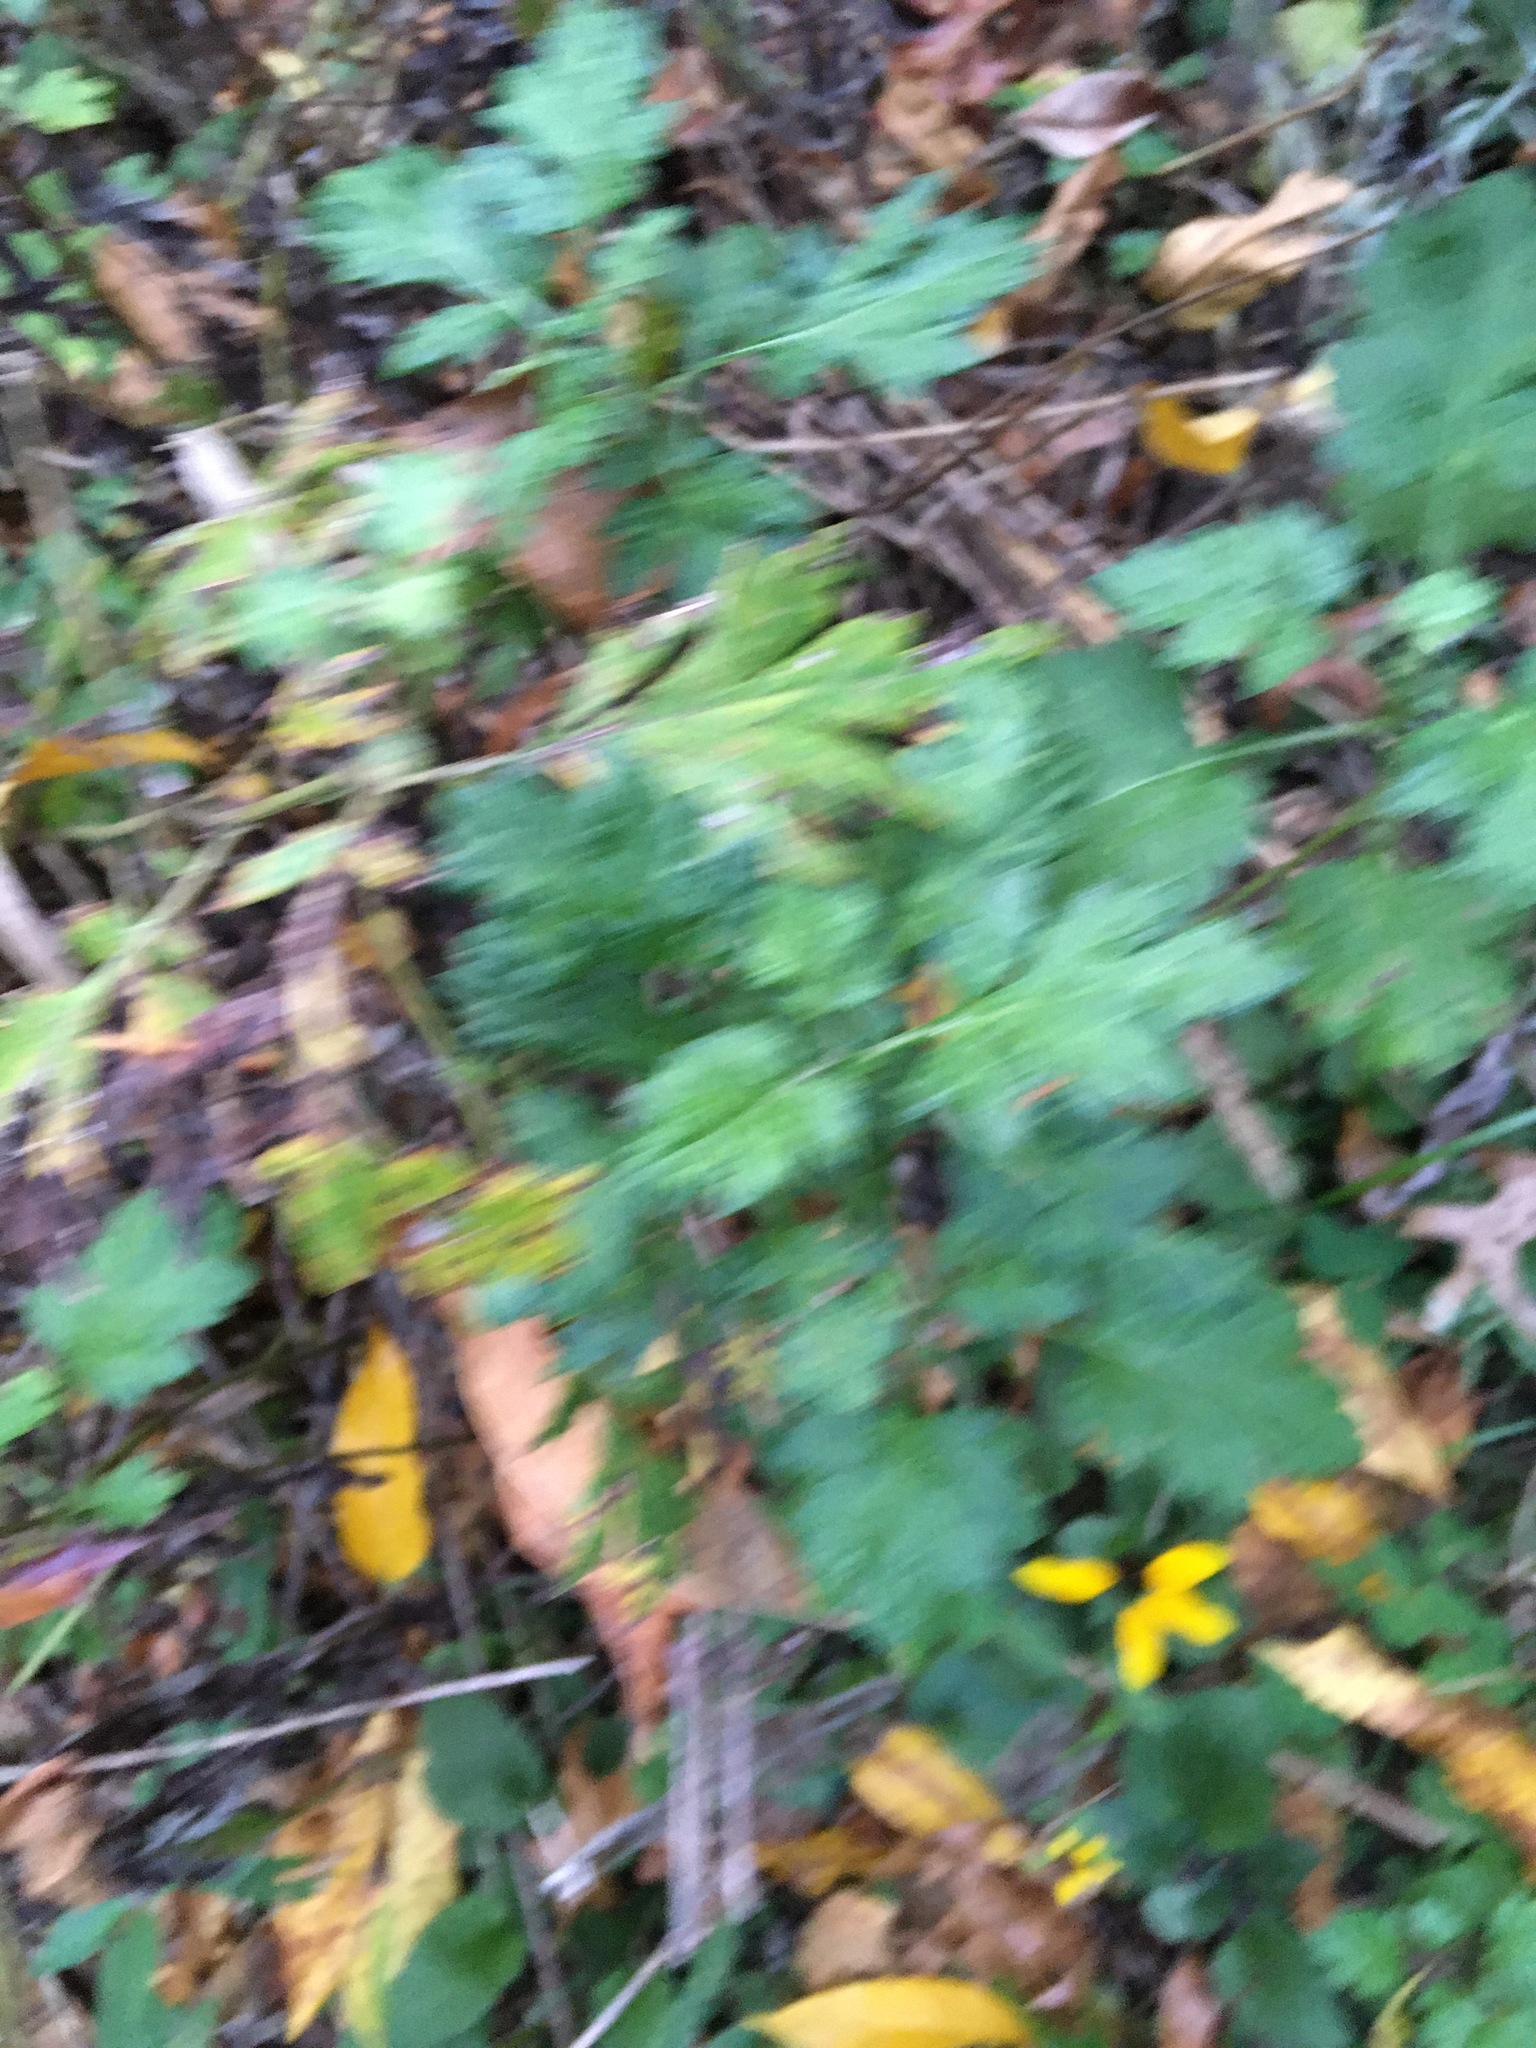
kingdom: Plantae
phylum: Tracheophyta
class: Magnoliopsida
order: Asterales
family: Asteraceae
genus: Artemisia
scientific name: Artemisia vulgaris
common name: Mugwort
